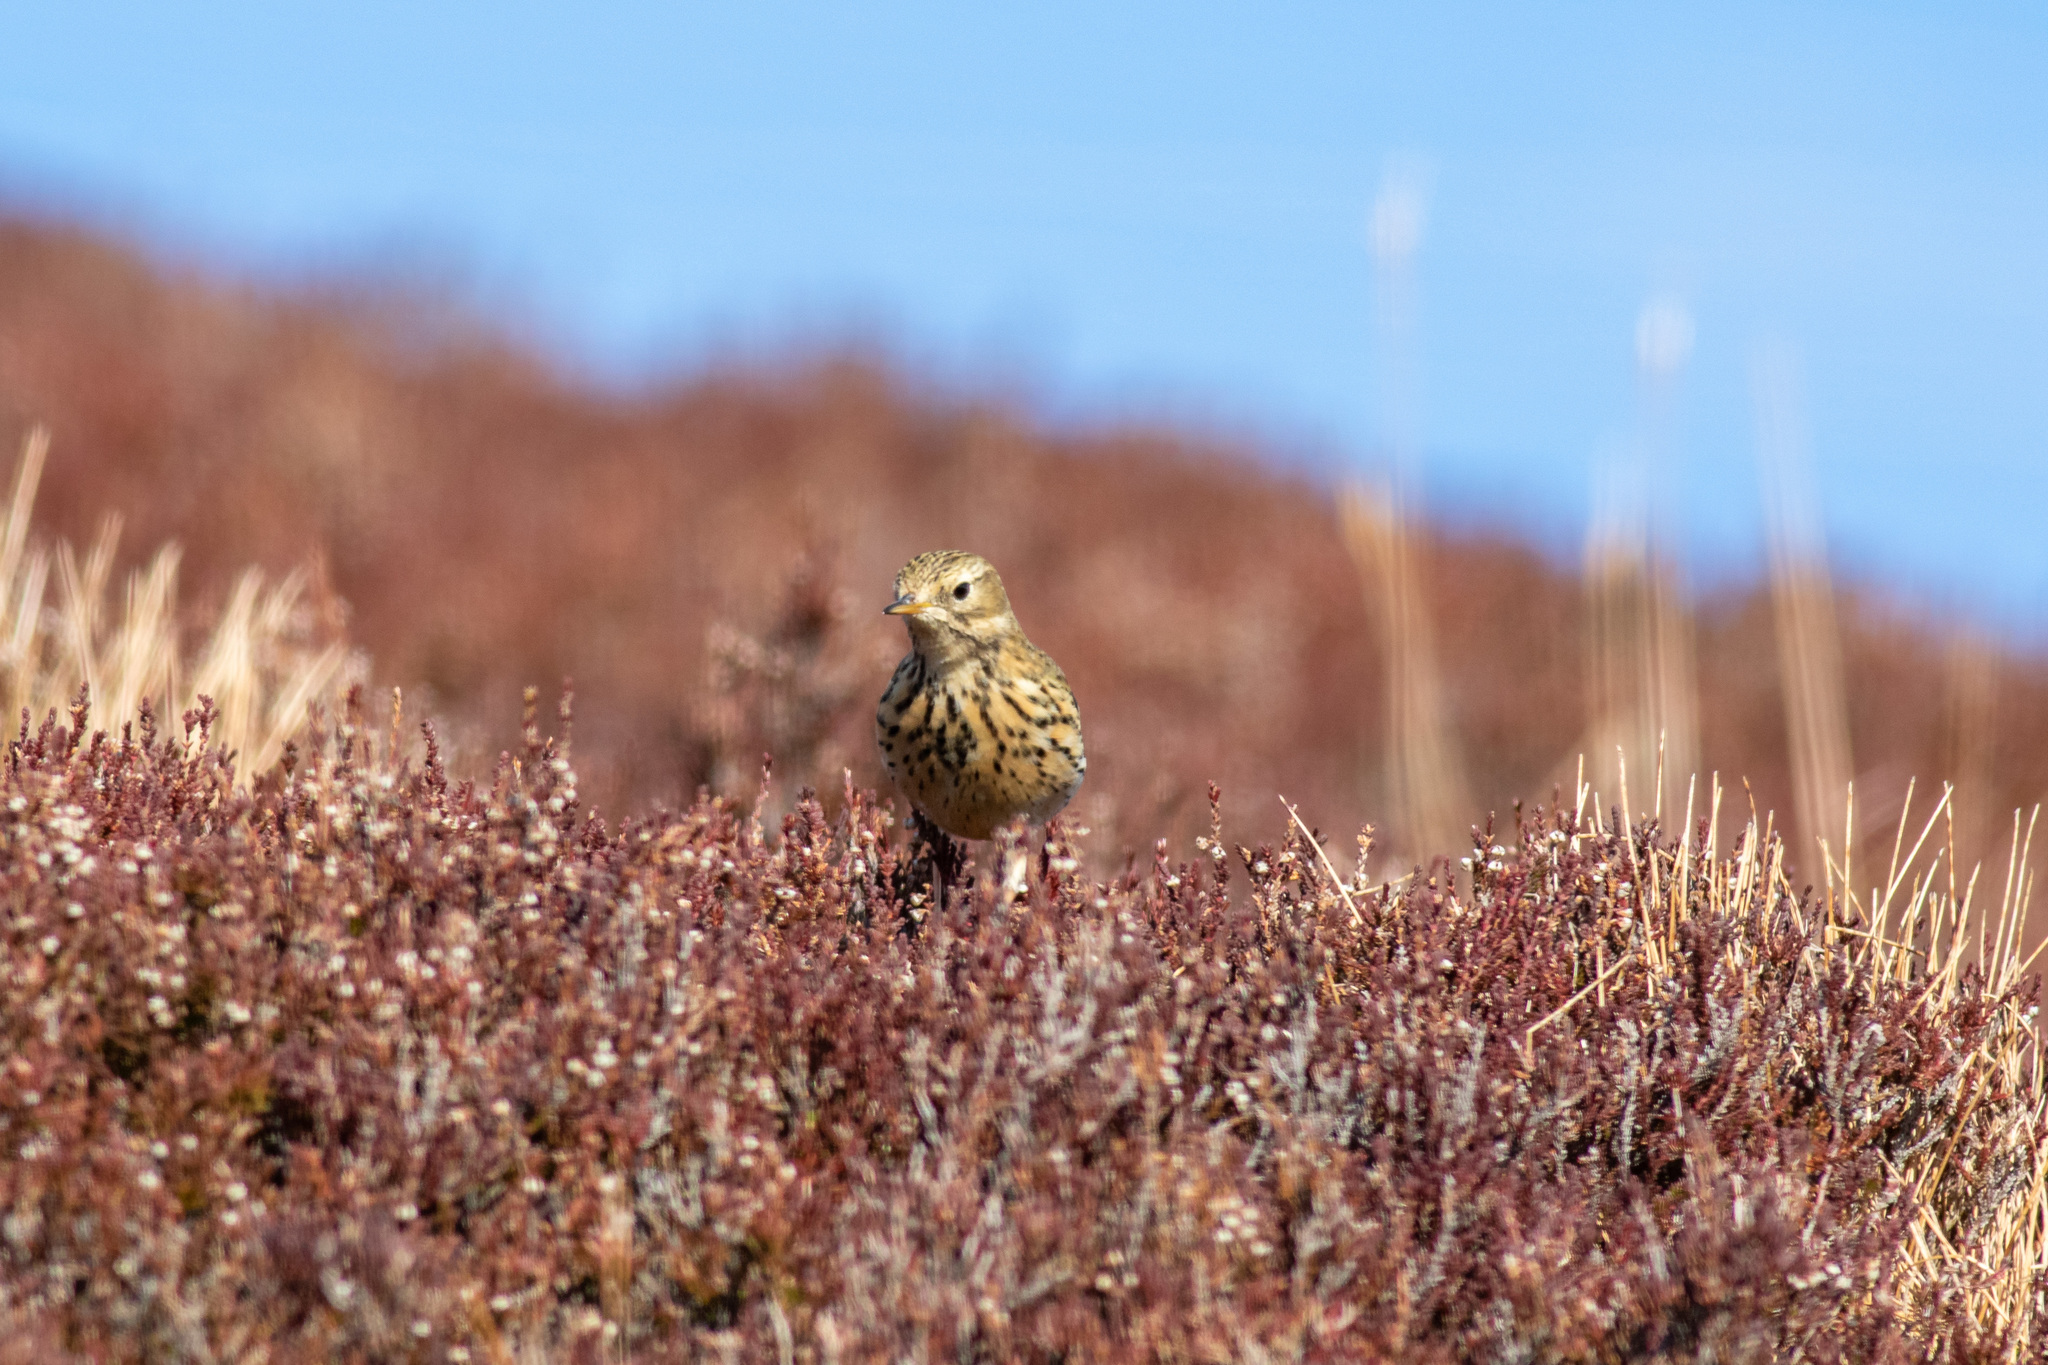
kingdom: Animalia
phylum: Chordata
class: Aves
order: Passeriformes
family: Motacillidae
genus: Anthus
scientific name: Anthus pratensis
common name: Meadow pipit
